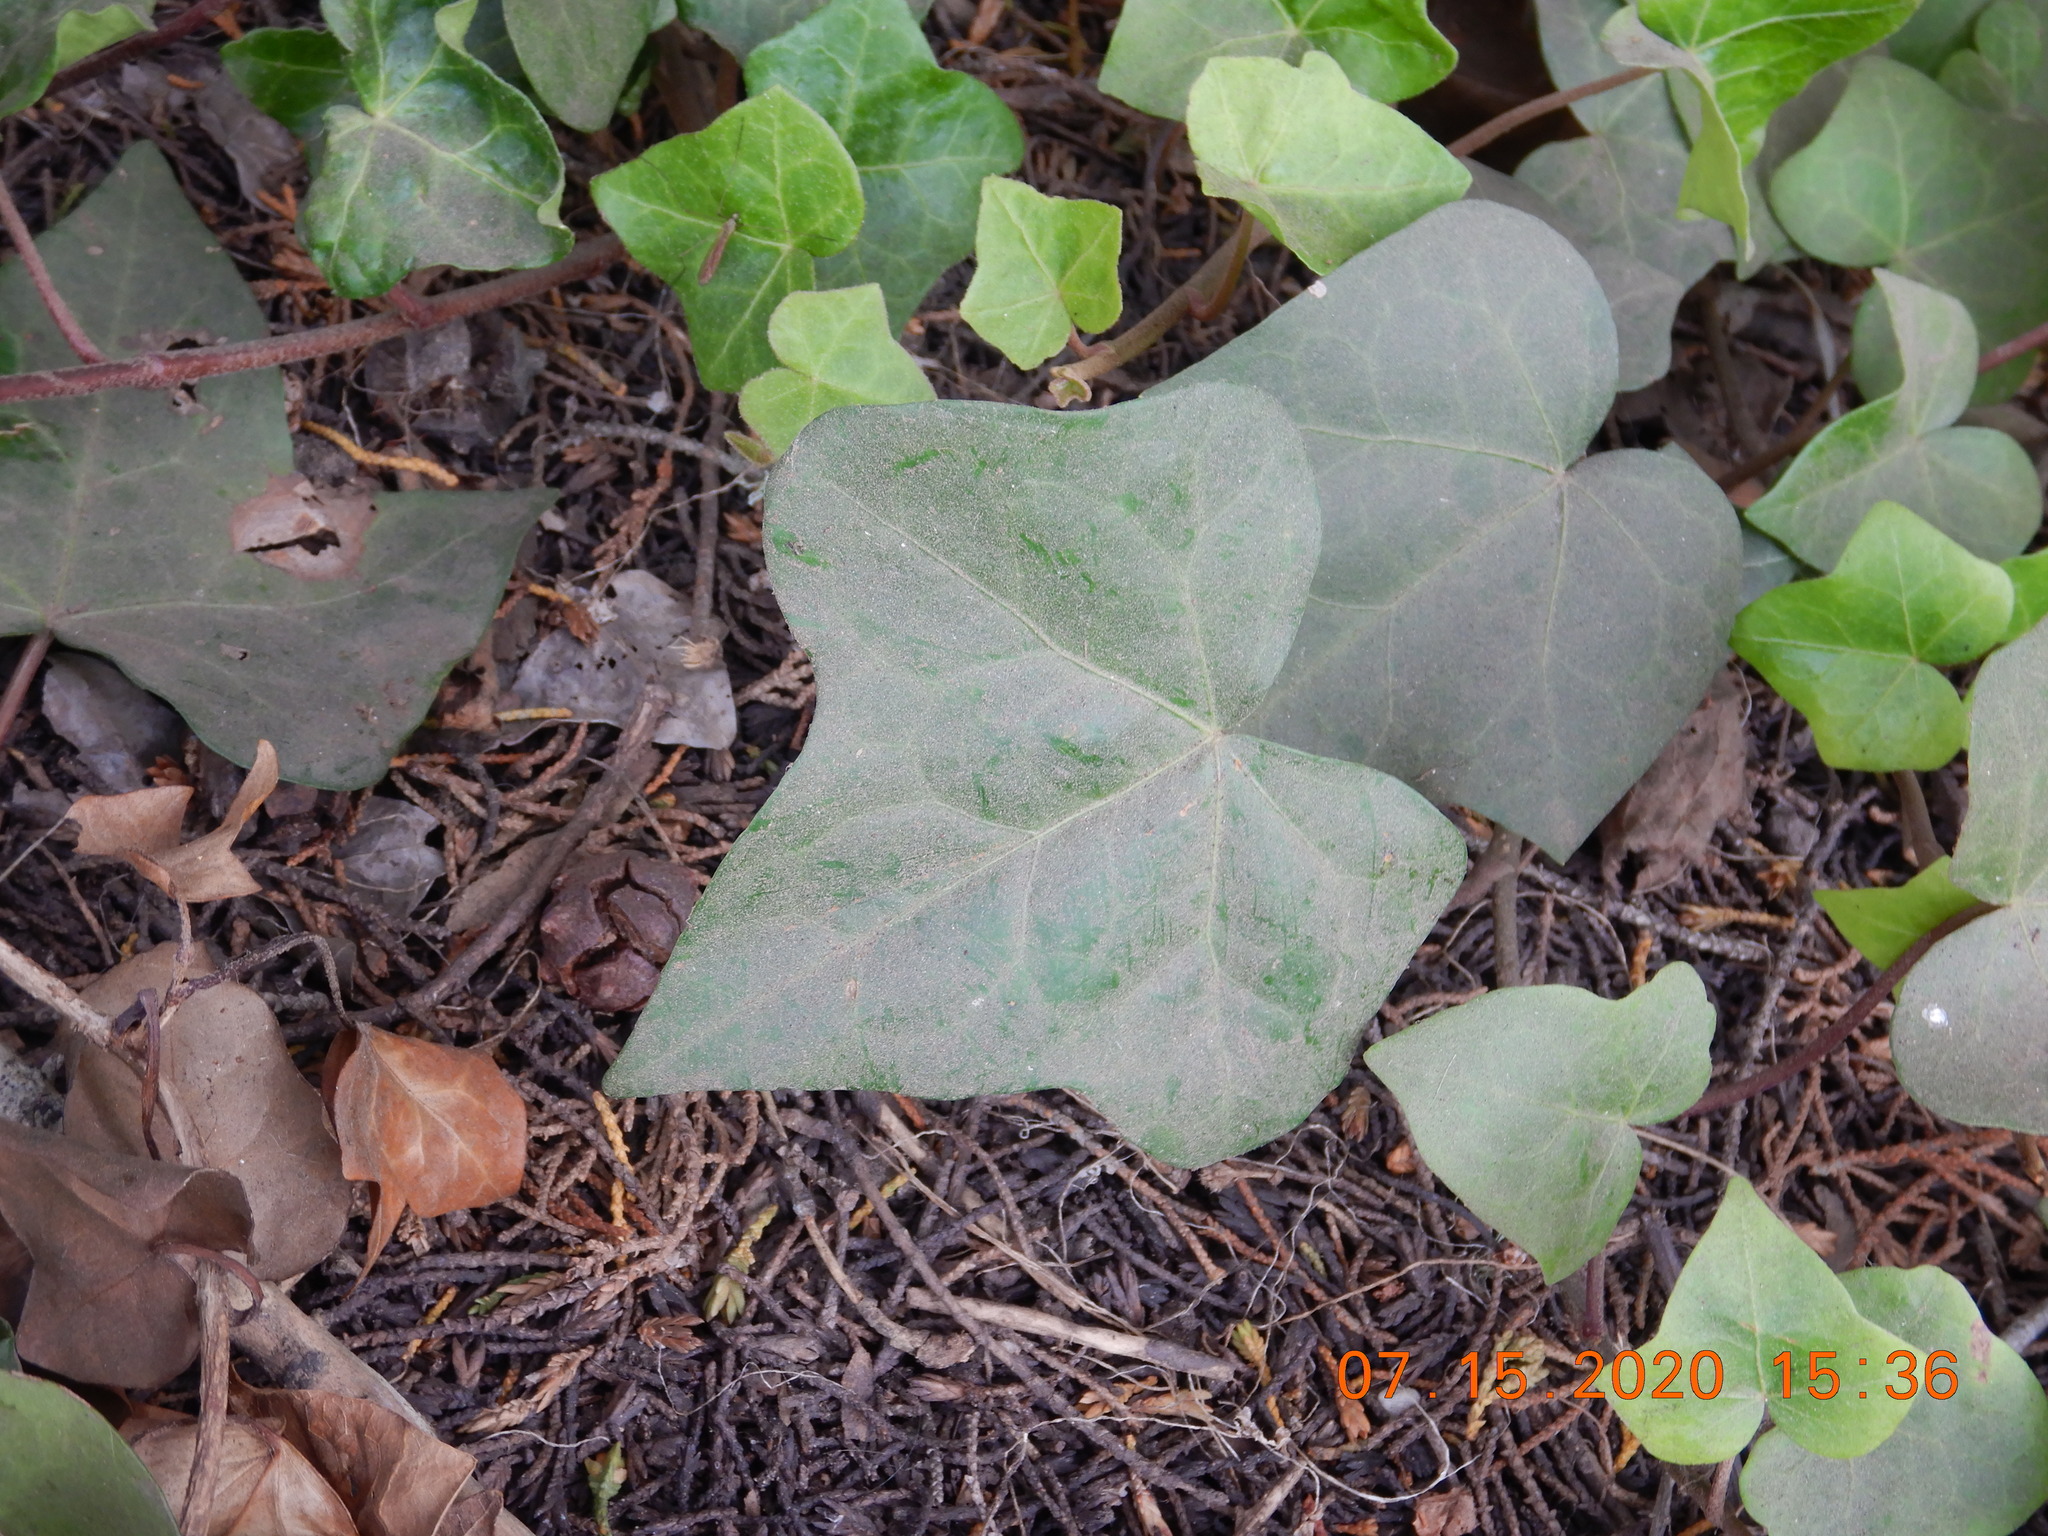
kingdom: Plantae
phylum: Tracheophyta
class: Magnoliopsida
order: Apiales
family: Araliaceae
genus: Hedera
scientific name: Hedera helix
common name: Ivy
